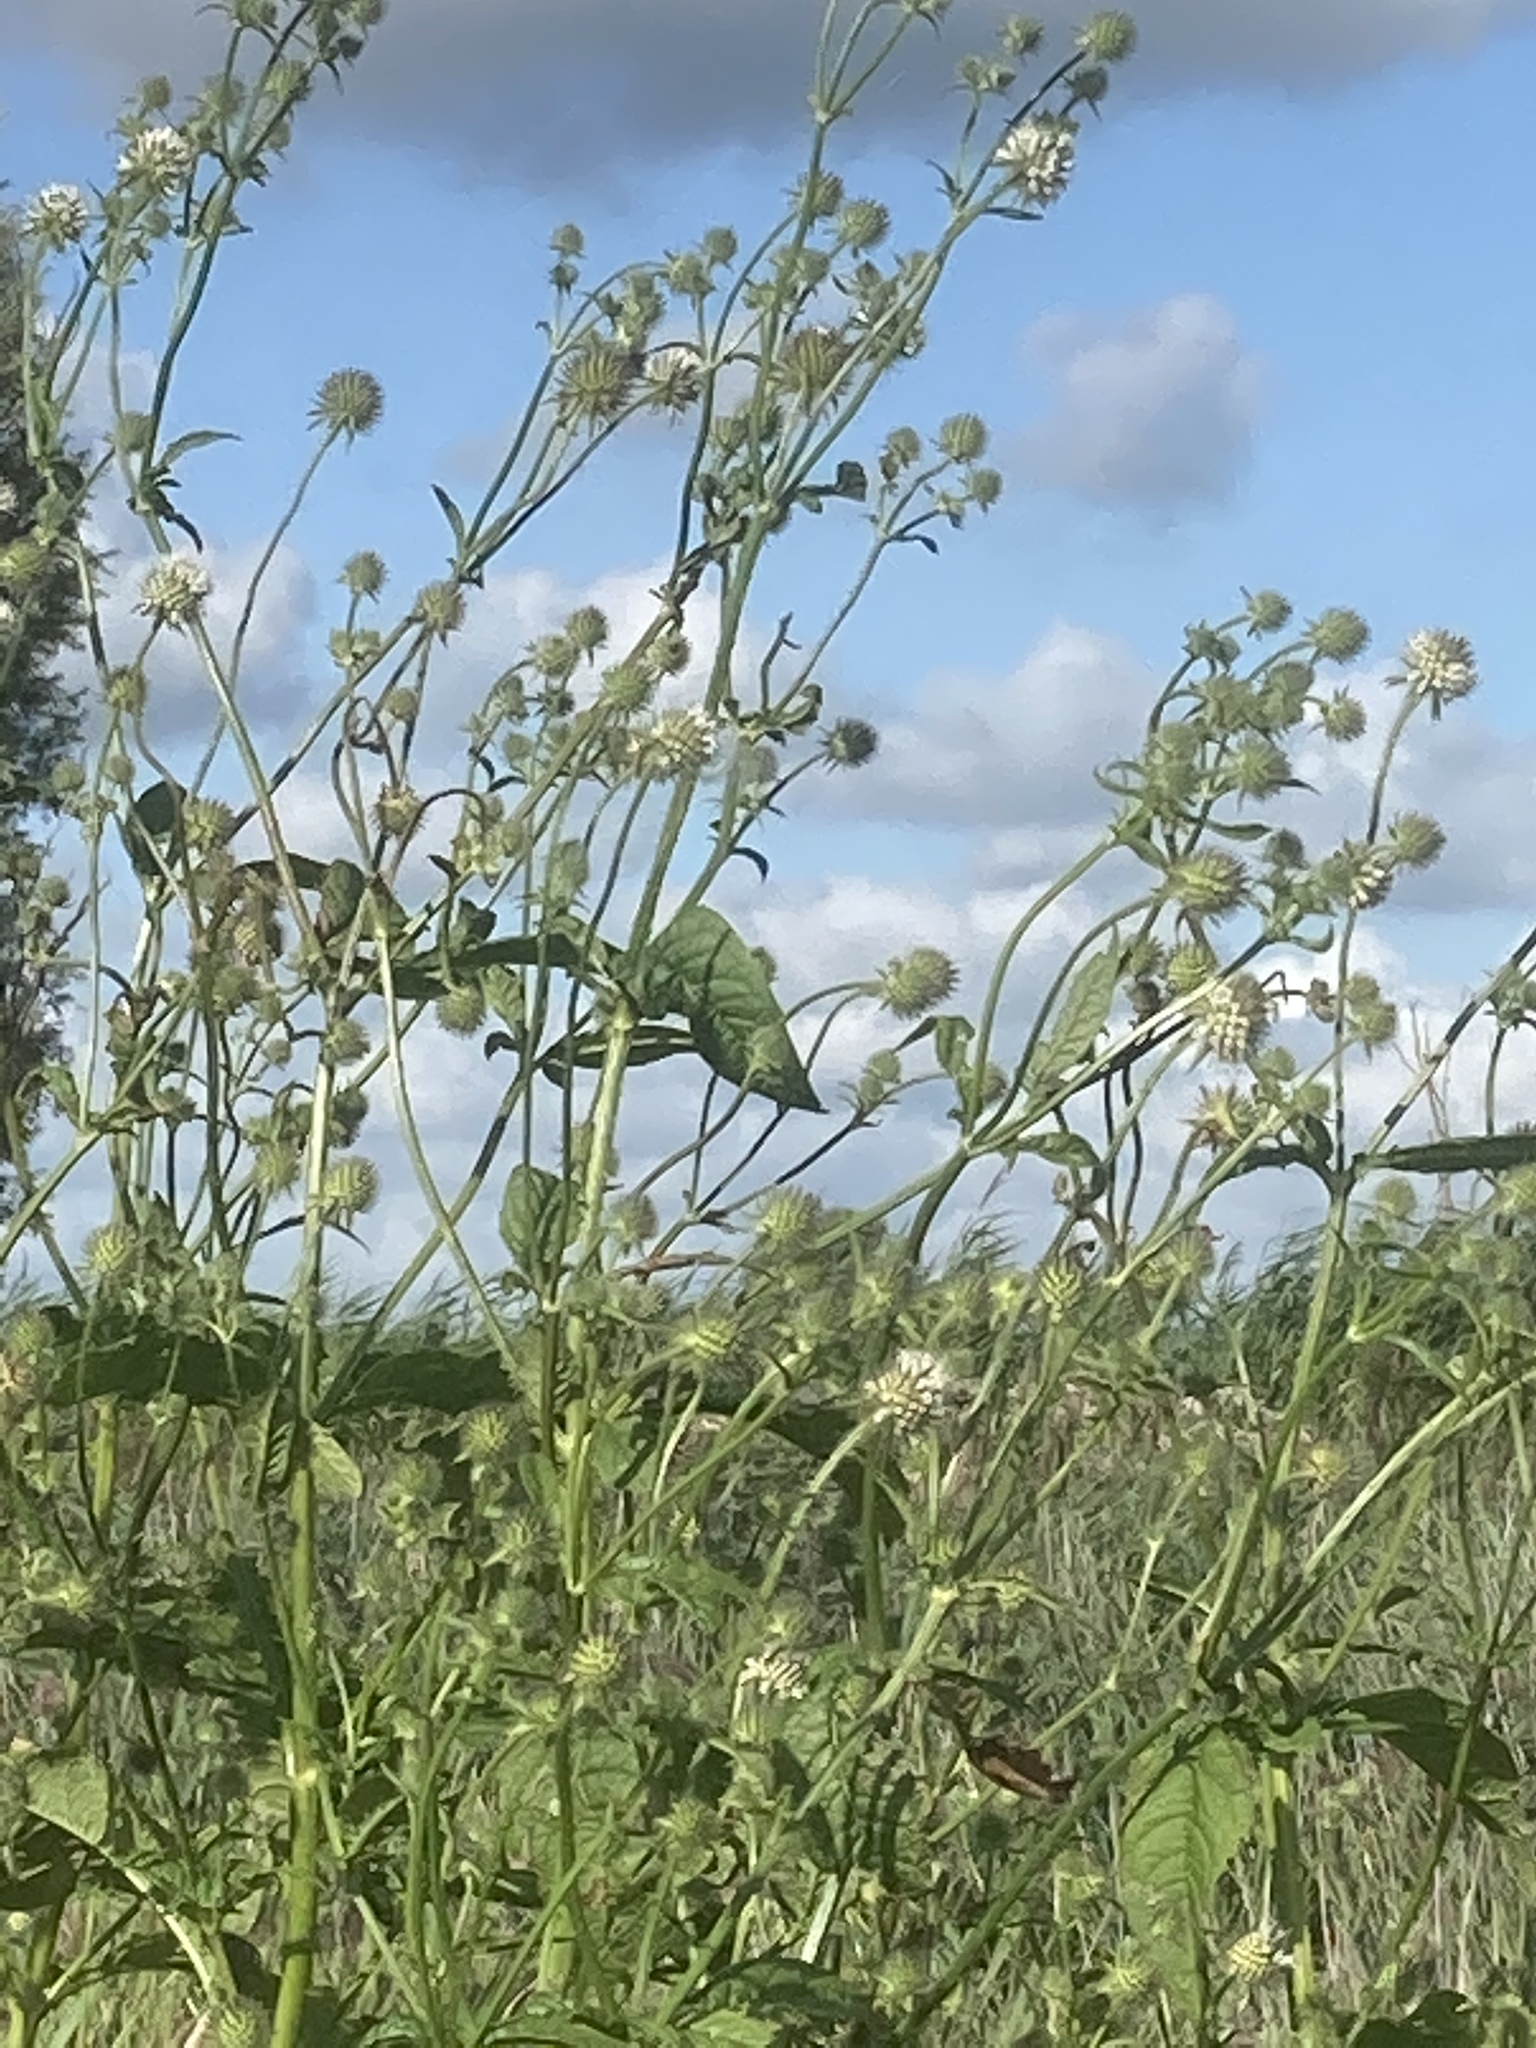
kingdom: Plantae
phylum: Tracheophyta
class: Magnoliopsida
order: Dipsacales
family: Caprifoliaceae
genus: Dipsacus
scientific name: Dipsacus strigosus
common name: Yellow-flowered teasel
